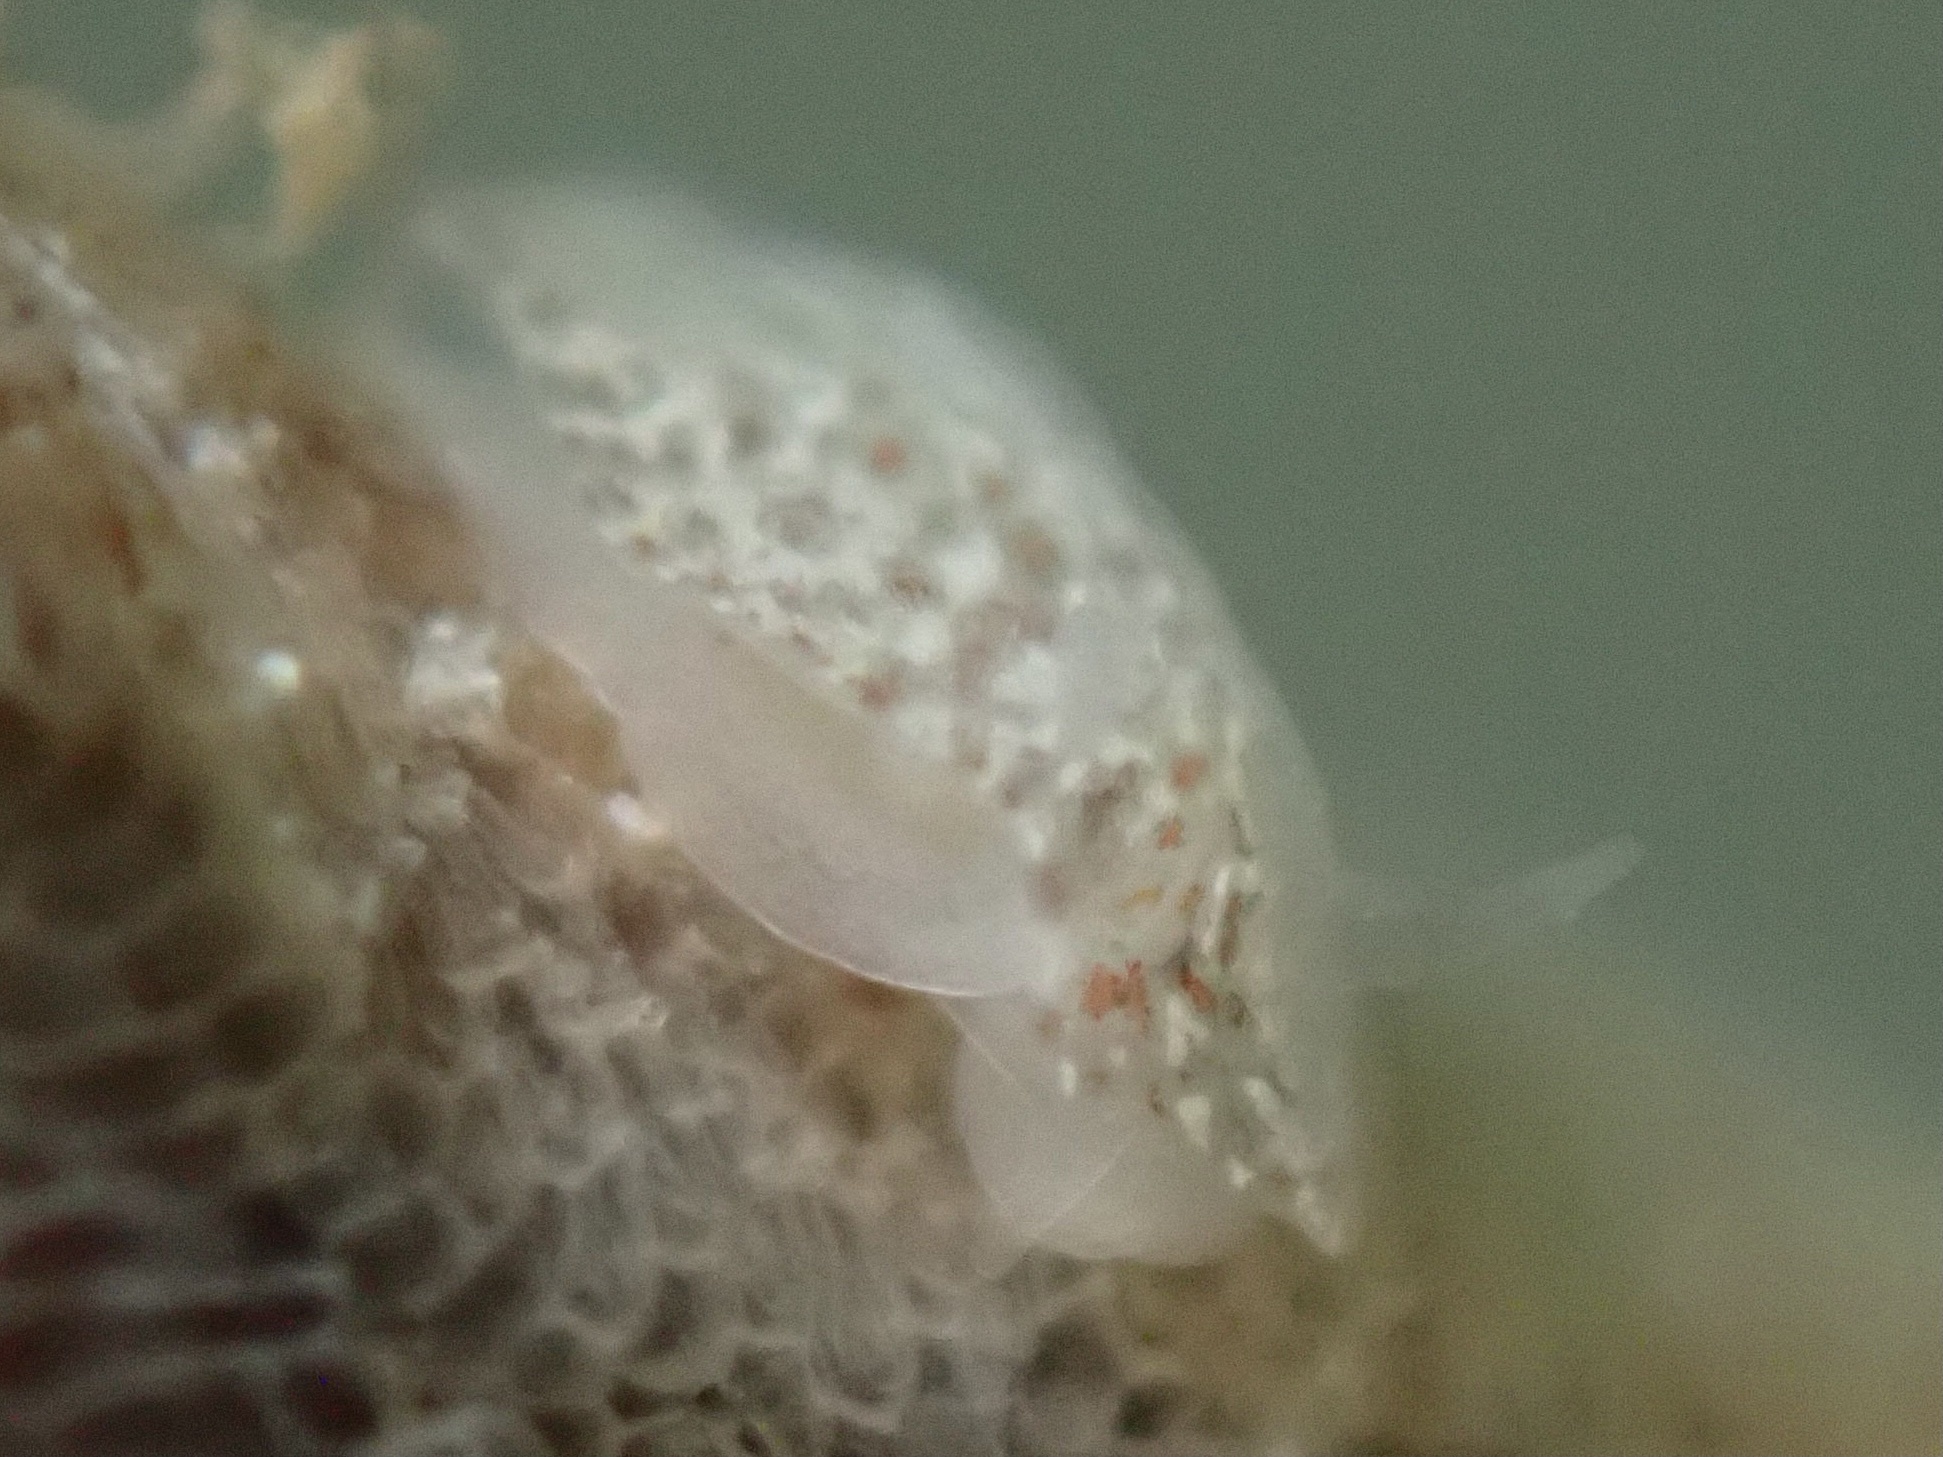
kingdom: Animalia
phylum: Mollusca
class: Gastropoda
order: Nudibranchia
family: Corambidae
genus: Corambe
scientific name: Corambe steinbergae
